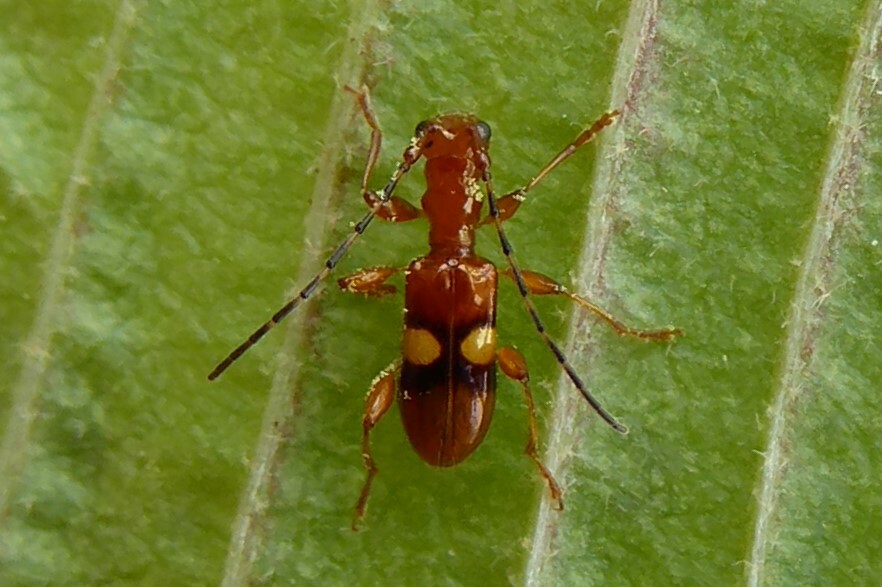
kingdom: Animalia
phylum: Arthropoda
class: Insecta
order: Coleoptera
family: Cerambycidae
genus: Zorion
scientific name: Zorion australe
